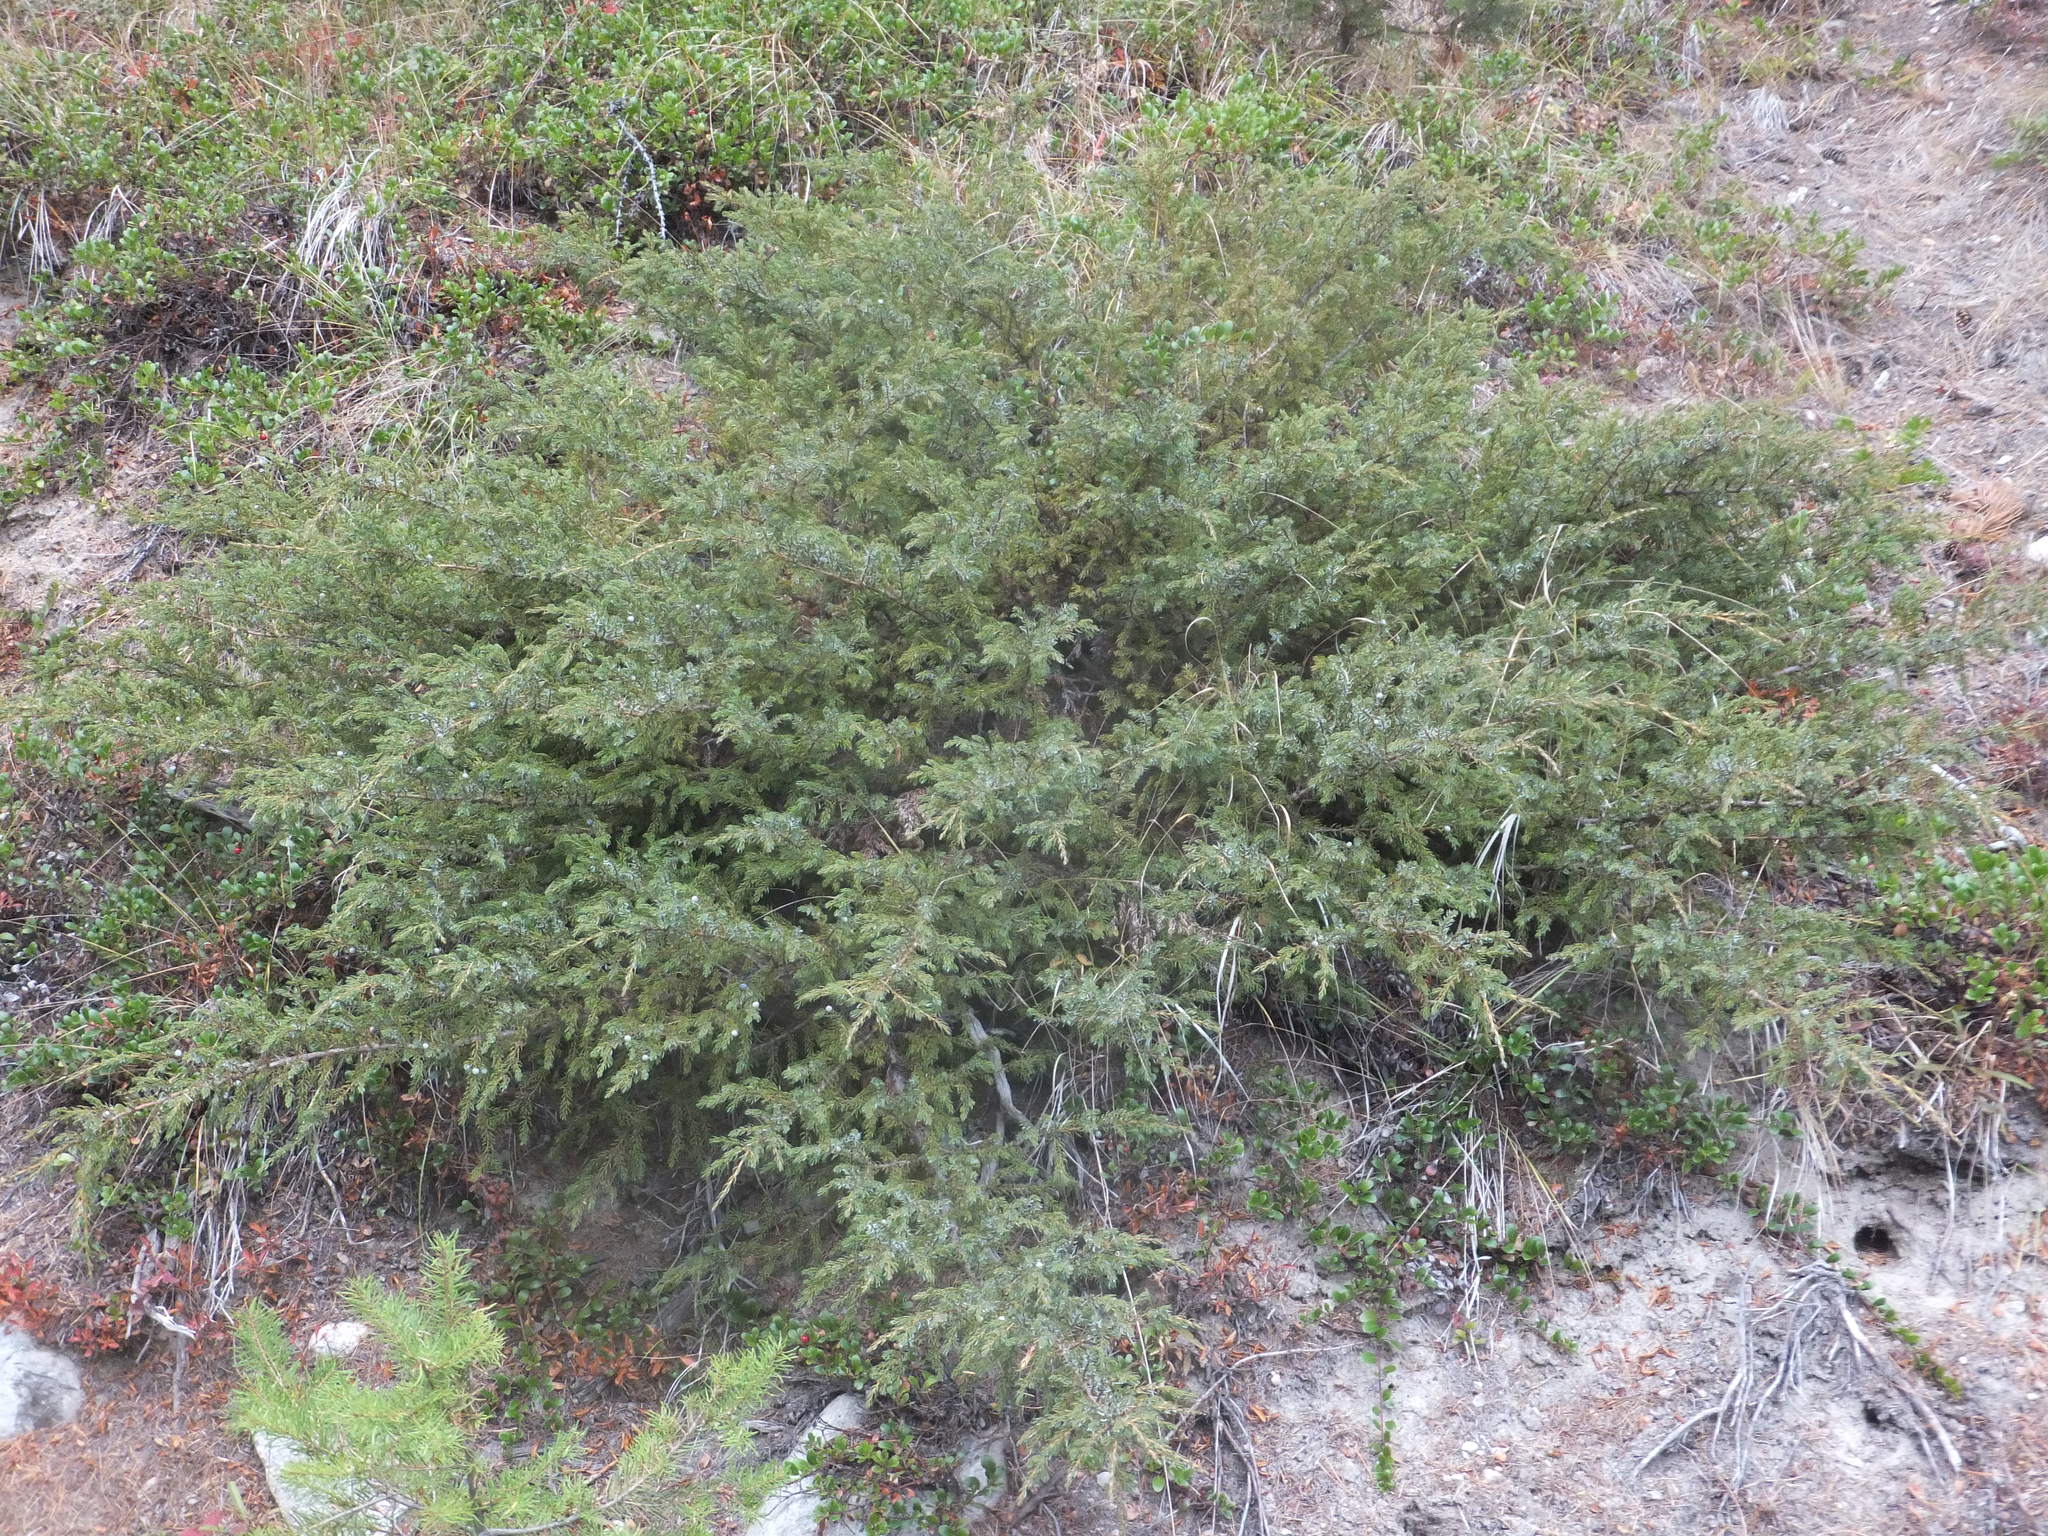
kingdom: Plantae
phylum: Tracheophyta
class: Pinopsida
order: Pinales
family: Cupressaceae
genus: Juniperus
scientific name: Juniperus communis
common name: Common juniper
